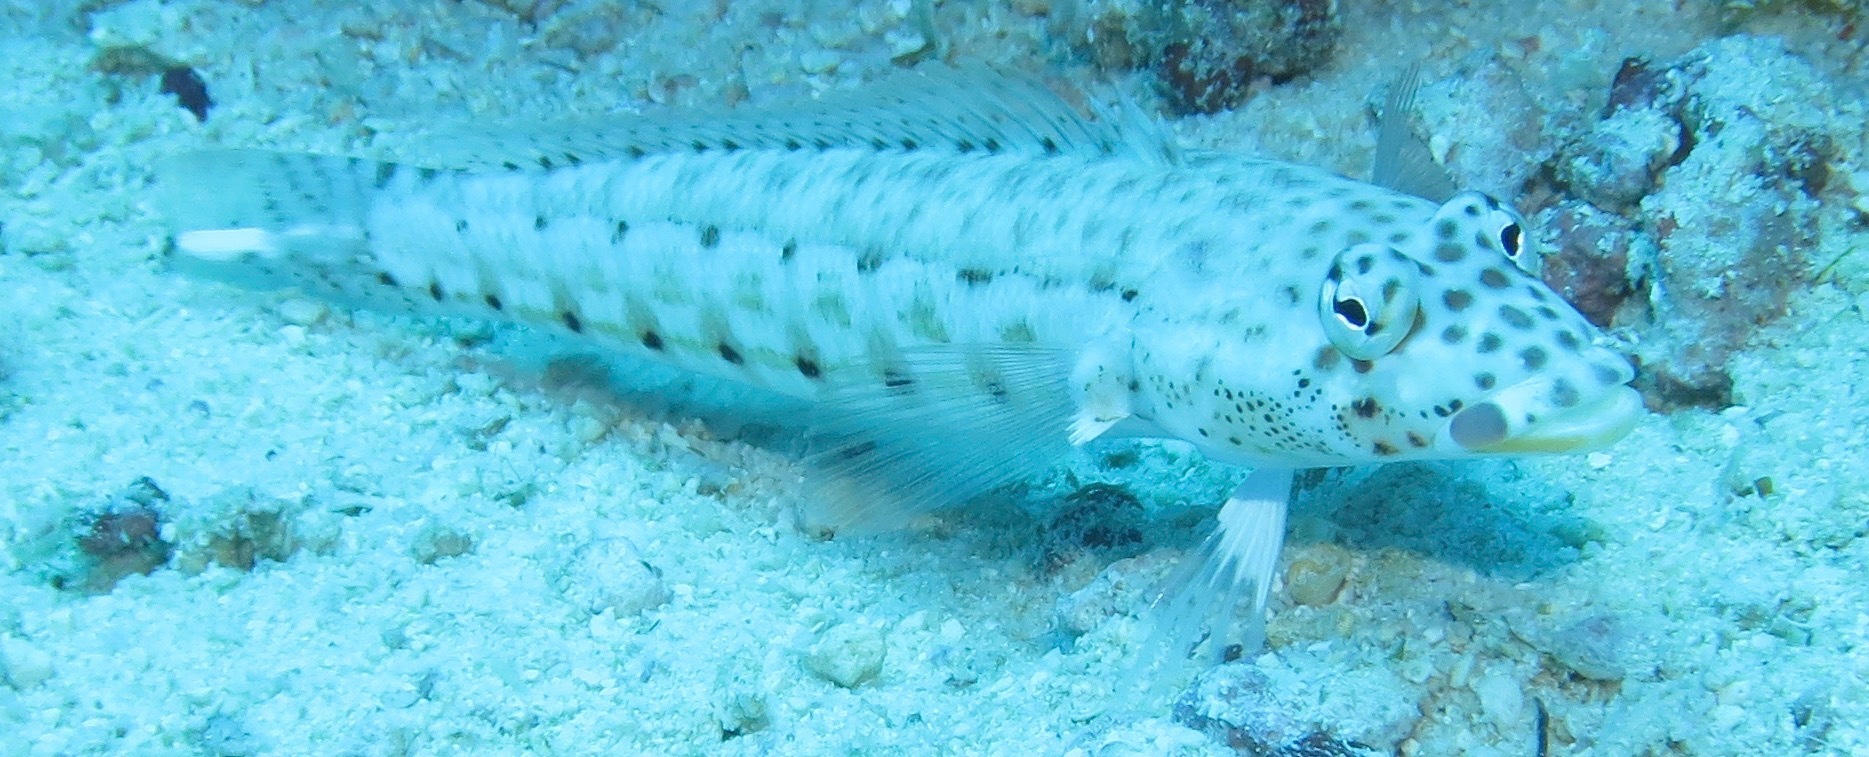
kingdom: Animalia
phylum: Chordata
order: Perciformes
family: Pinguipedidae
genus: Parapercis
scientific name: Parapercis clathrata
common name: Latticed sandperch
